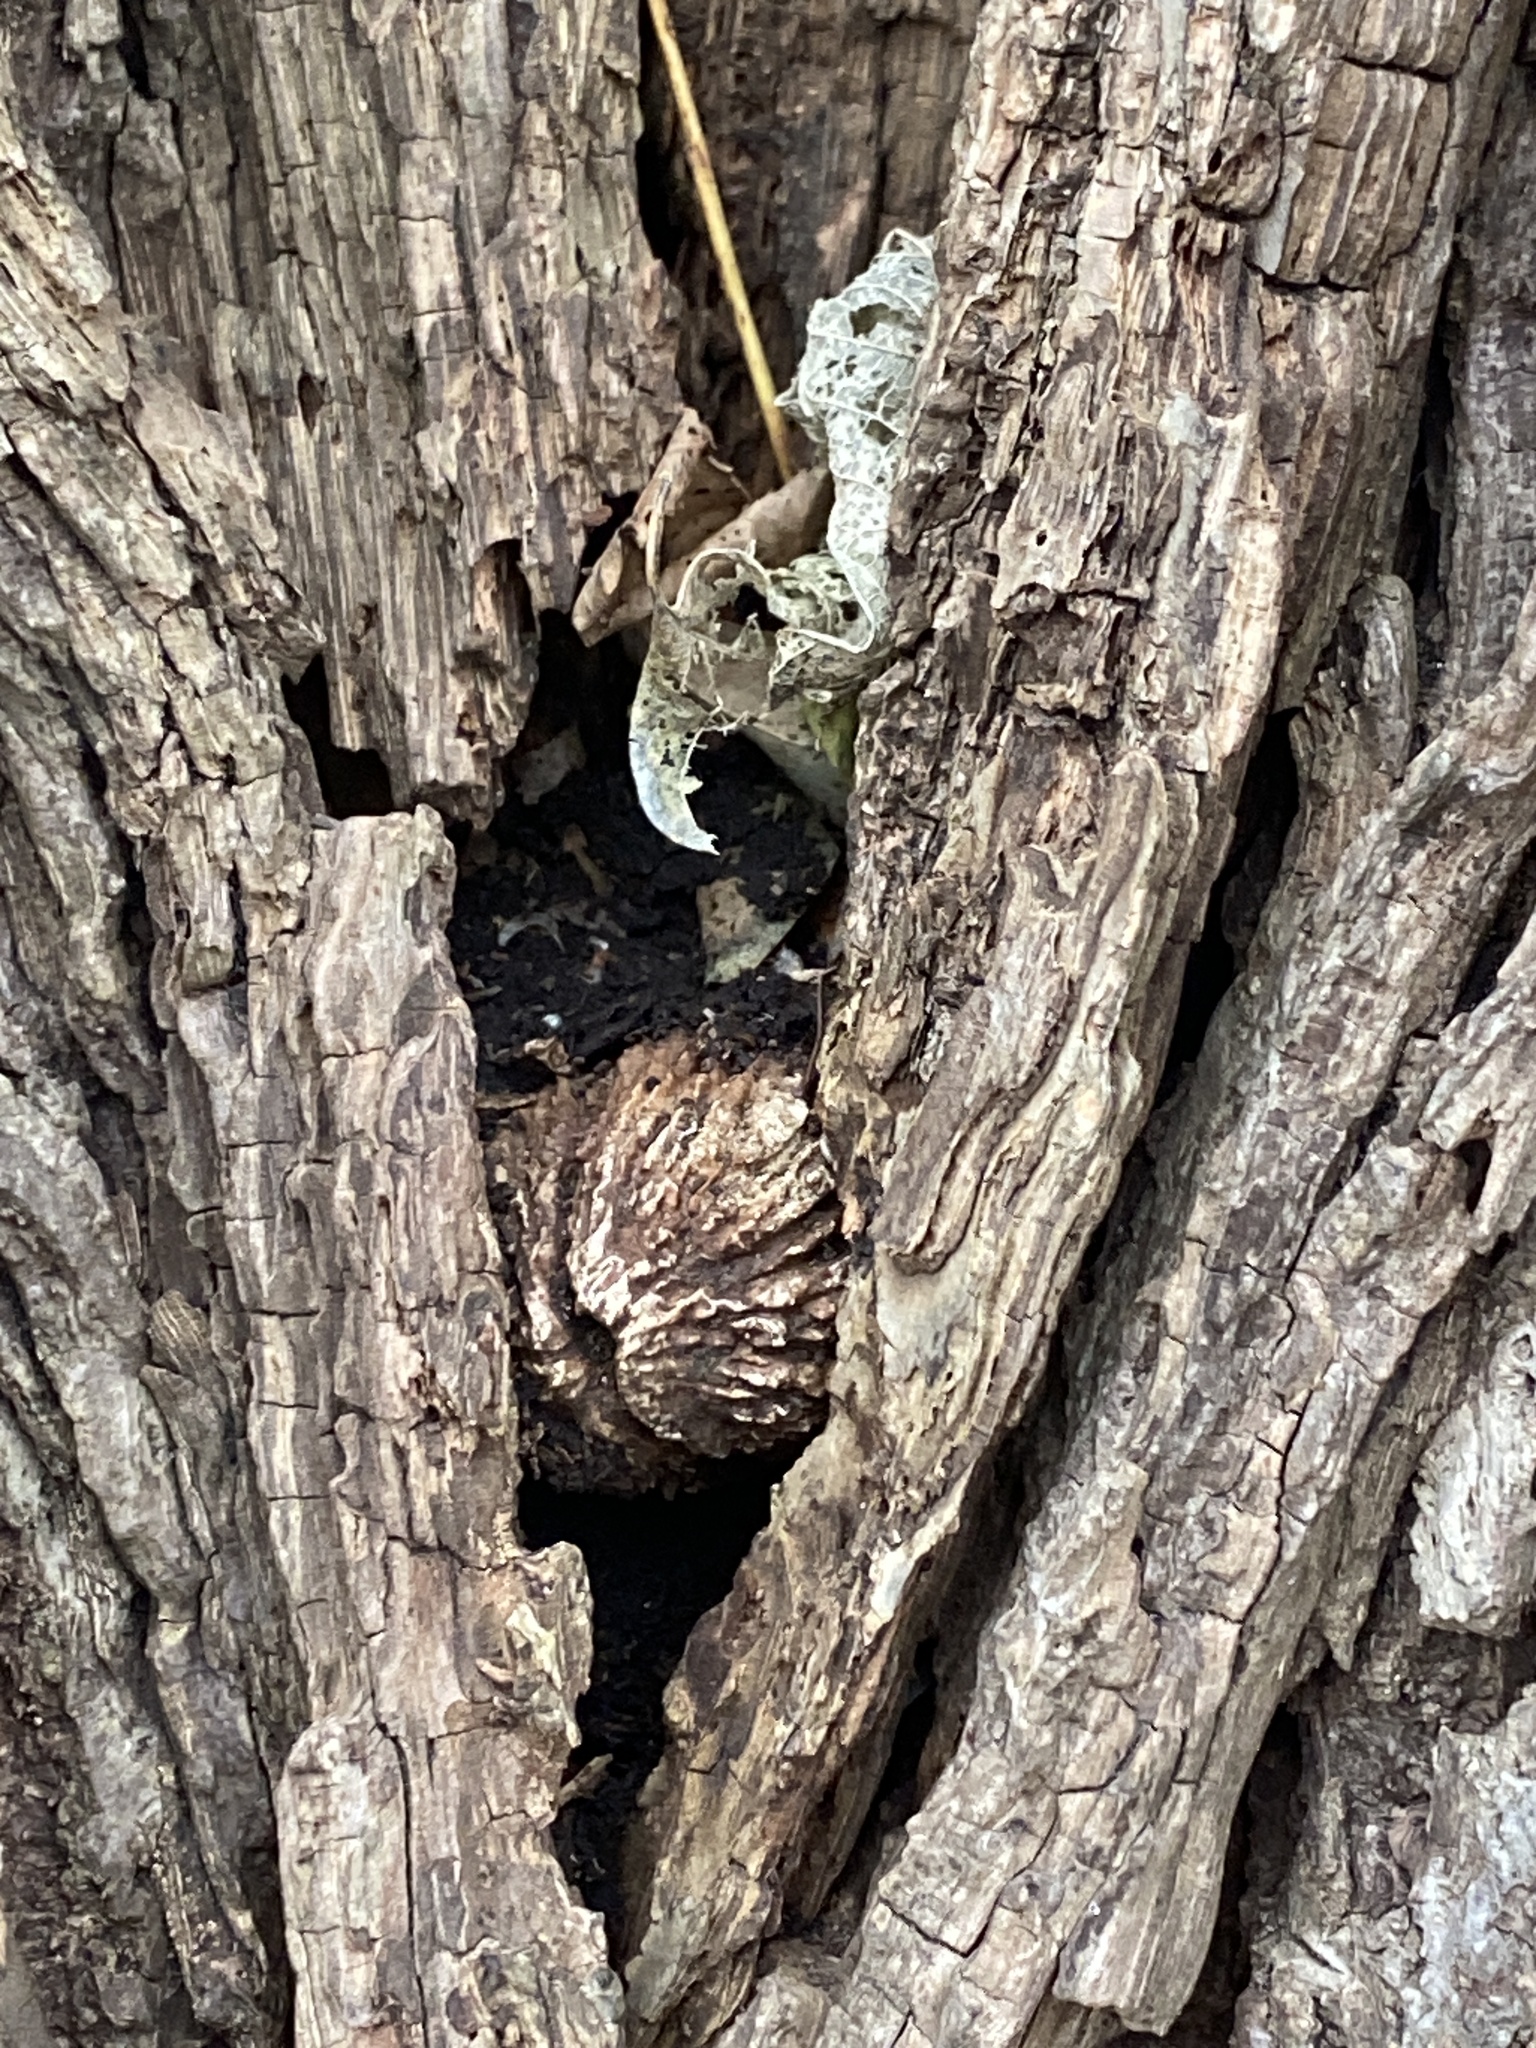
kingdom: Plantae
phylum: Tracheophyta
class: Magnoliopsida
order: Fagales
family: Juglandaceae
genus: Juglans
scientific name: Juglans nigra
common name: Black walnut
